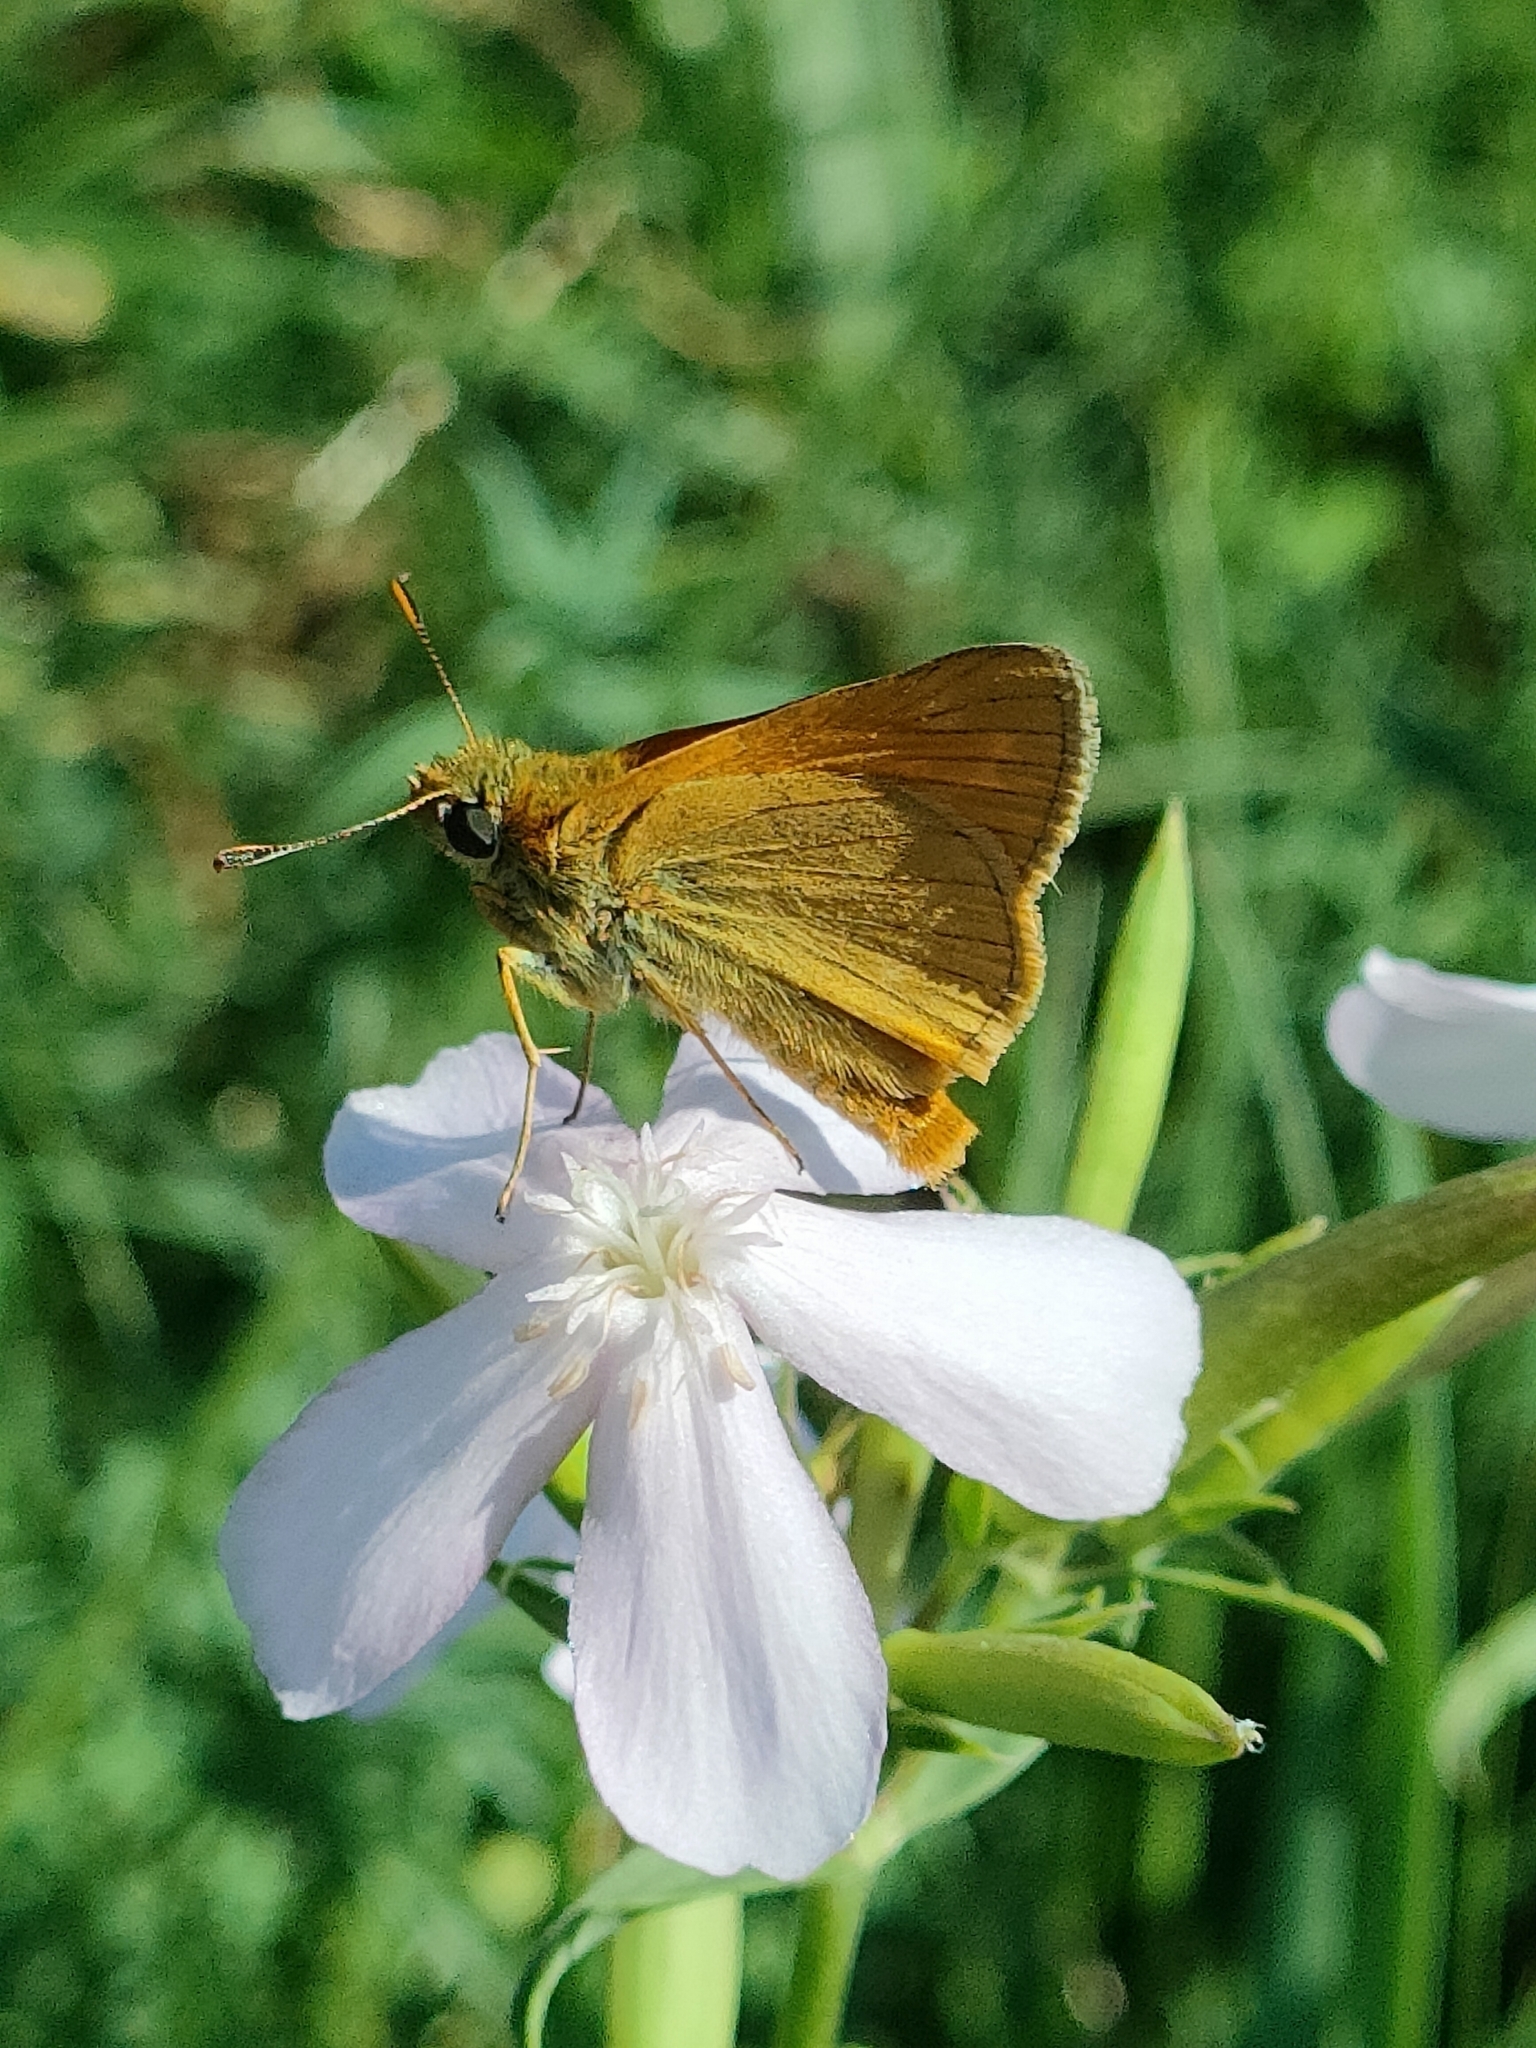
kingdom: Animalia
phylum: Arthropoda
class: Insecta
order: Lepidoptera
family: Hesperiidae
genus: Ochlodes
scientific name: Ochlodes venata
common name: Large skipper
